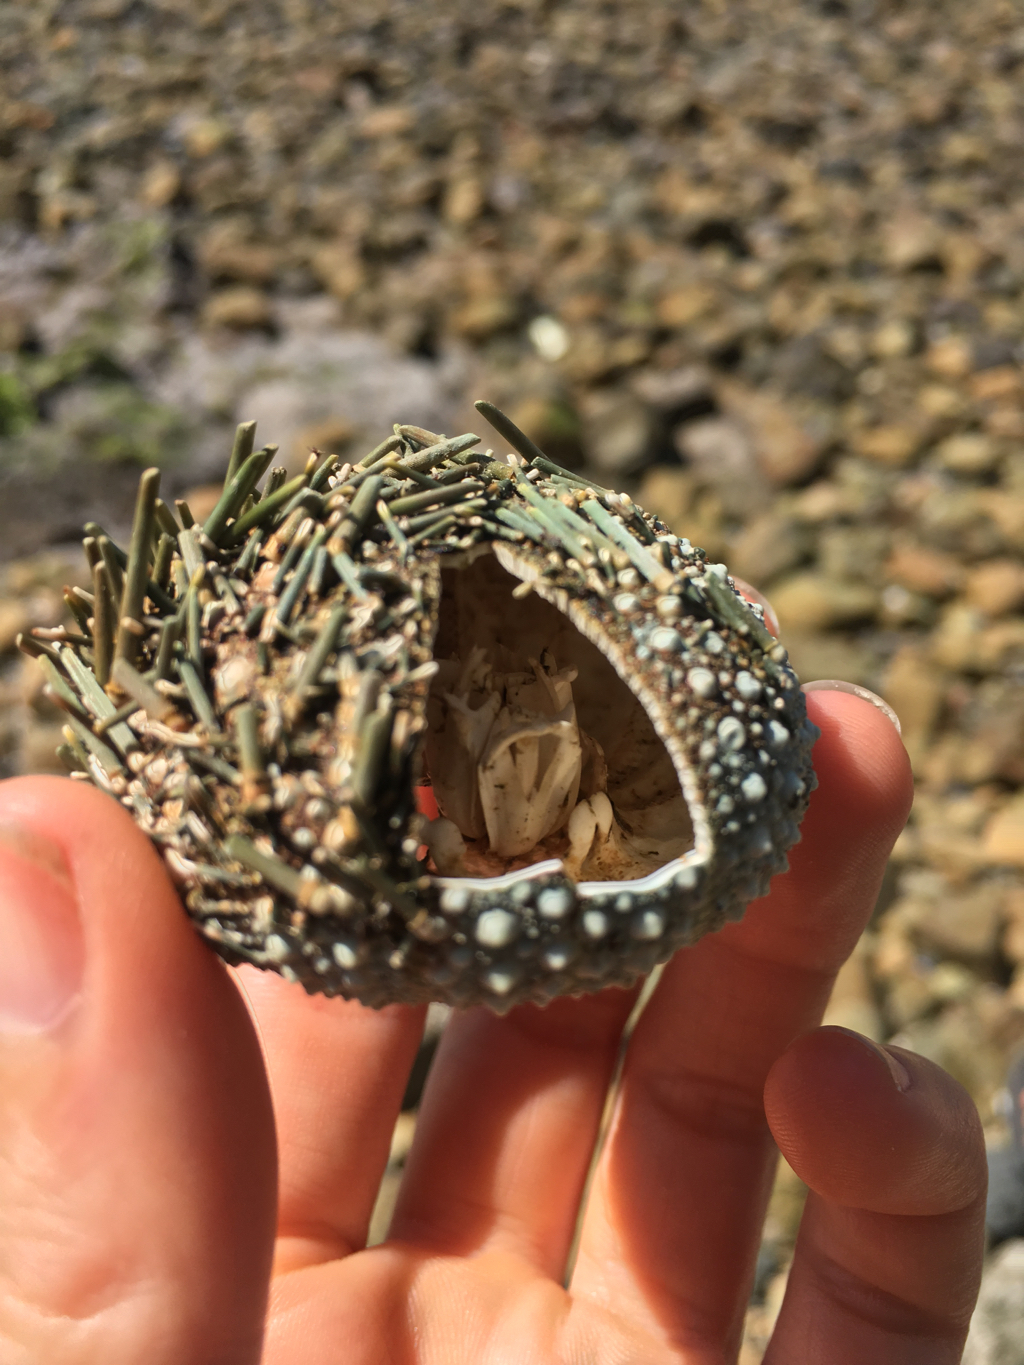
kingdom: Animalia
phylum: Echinodermata
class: Echinoidea
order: Camarodonta
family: Echinometridae
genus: Evechinus
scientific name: Evechinus chloroticus
